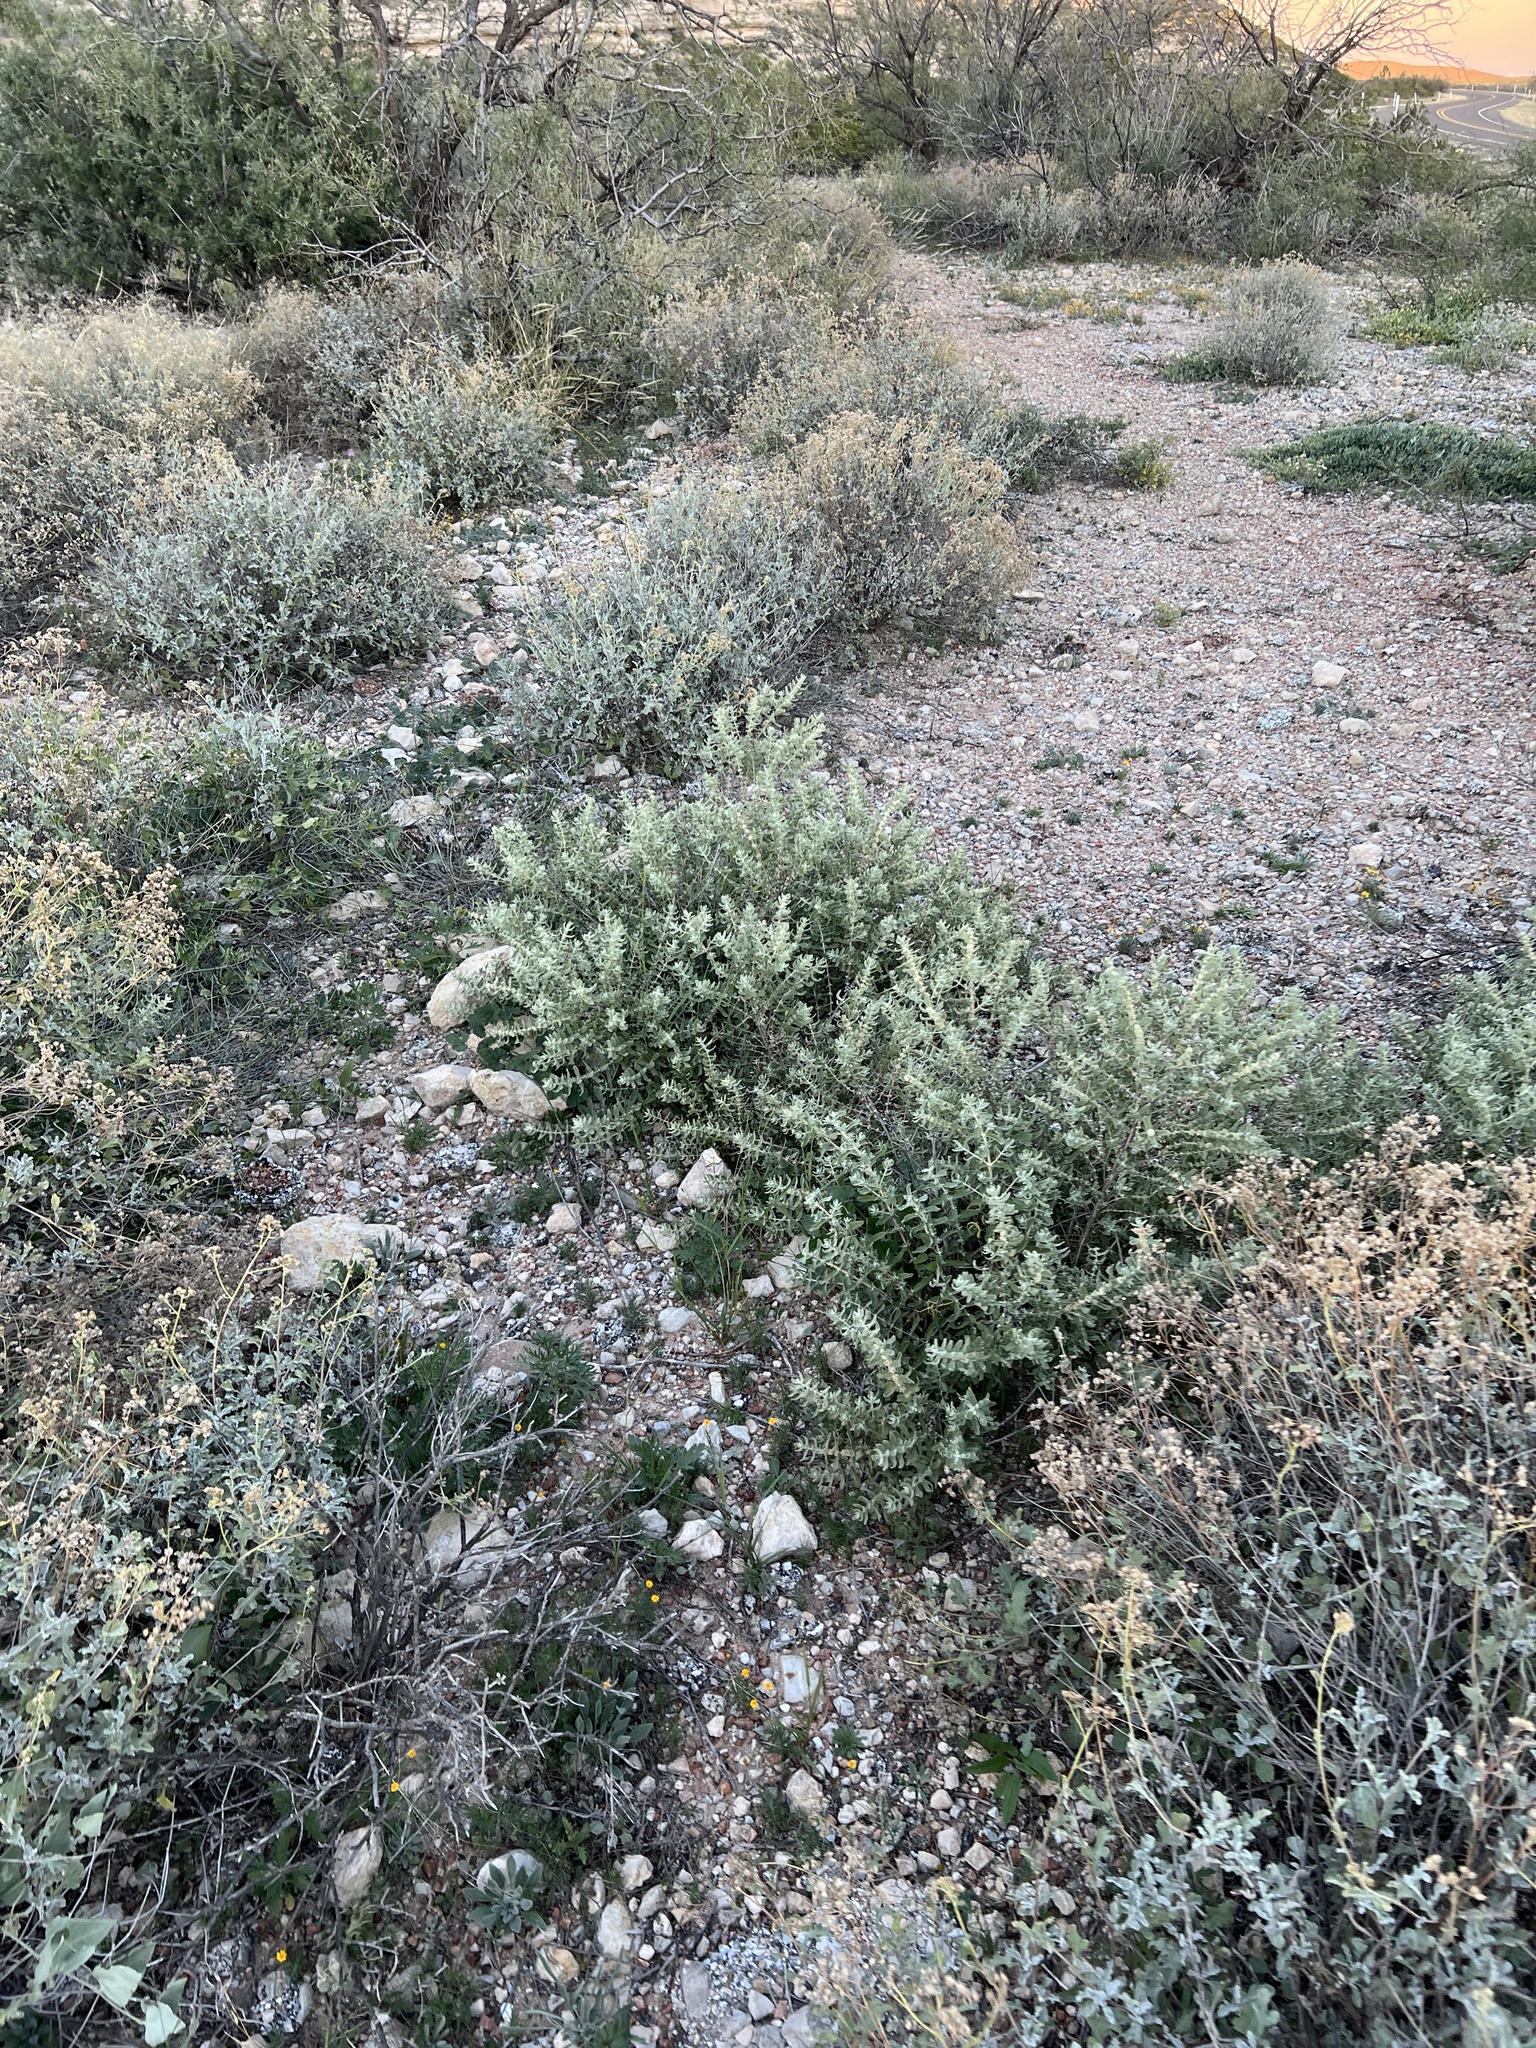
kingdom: Plantae
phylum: Tracheophyta
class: Magnoliopsida
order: Lamiales
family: Scrophulariaceae
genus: Buddleja
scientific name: Buddleja scordioides
